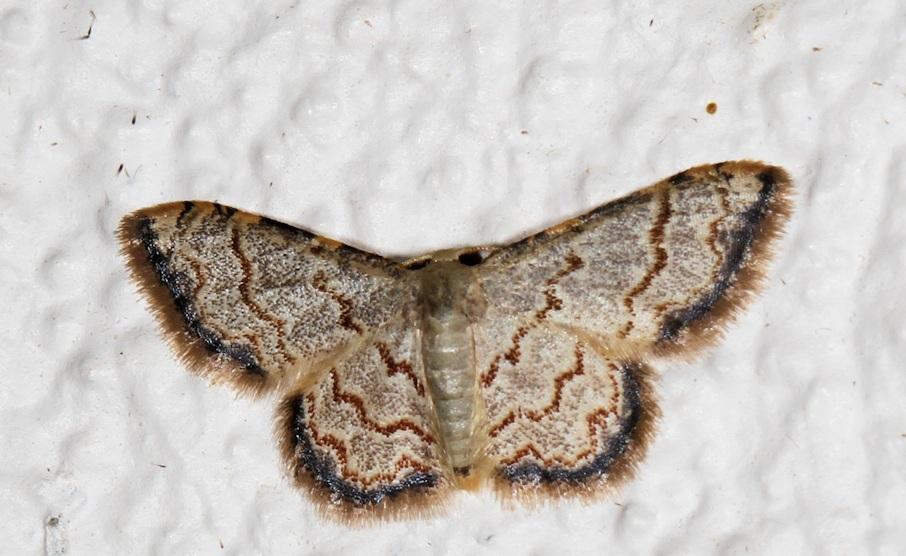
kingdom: Animalia
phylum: Arthropoda
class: Insecta
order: Lepidoptera
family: Geometridae
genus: Idaea
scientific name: Idaea sublimbaria
